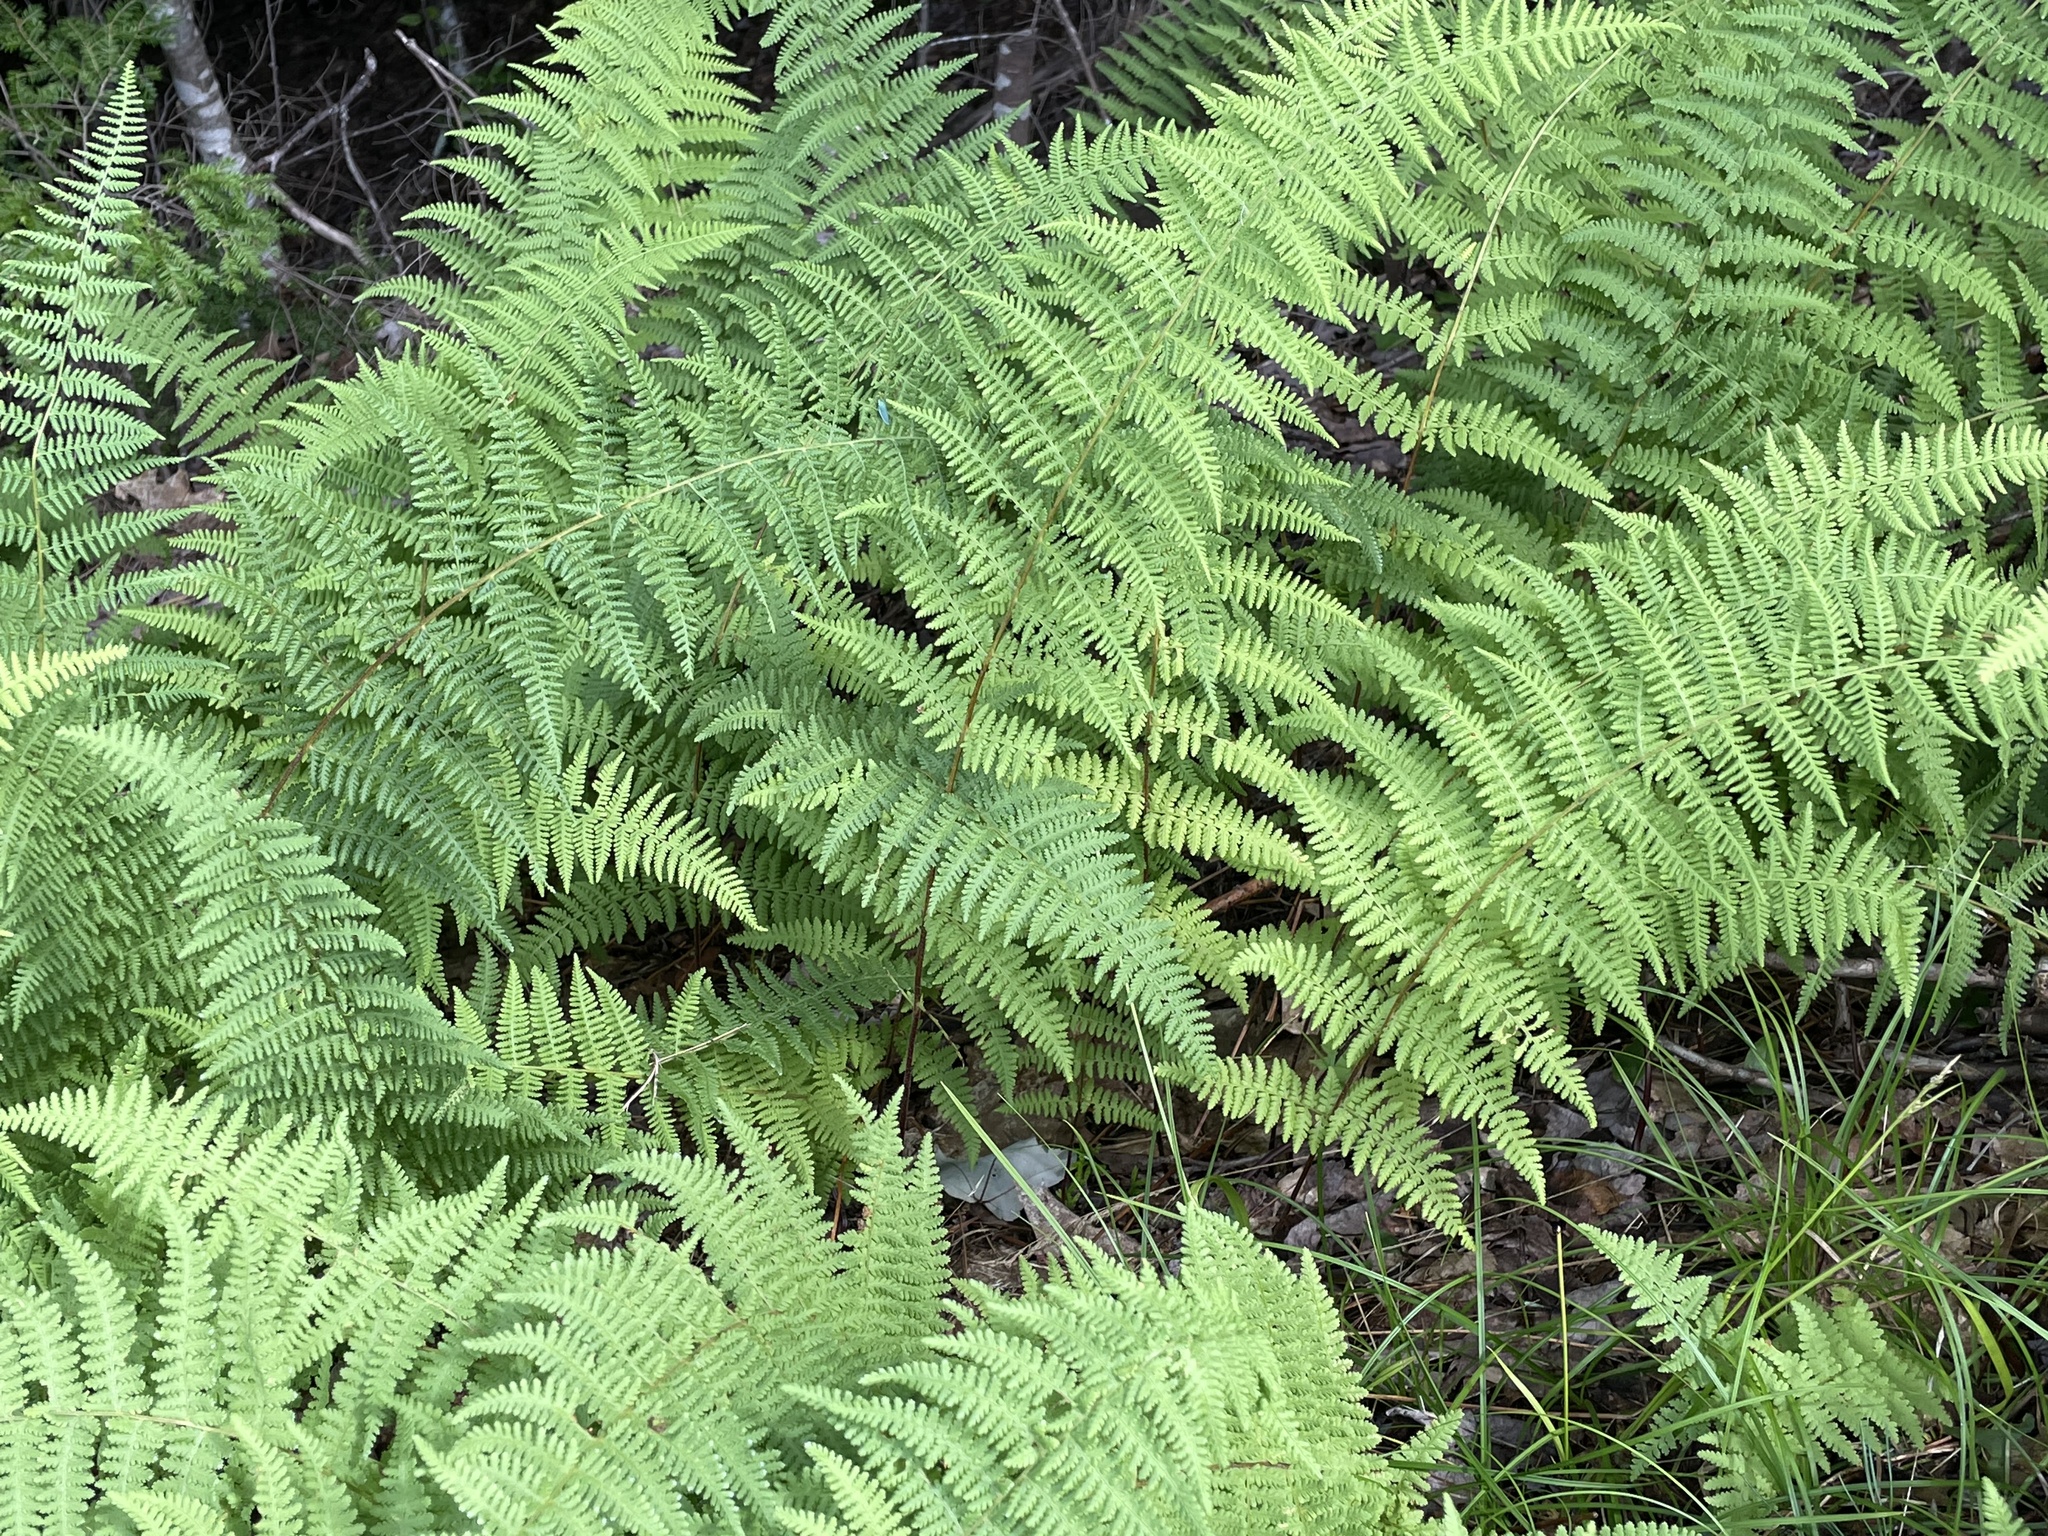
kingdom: Plantae
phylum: Tracheophyta
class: Polypodiopsida
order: Polypodiales
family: Dennstaedtiaceae
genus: Sitobolium
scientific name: Sitobolium punctilobum
